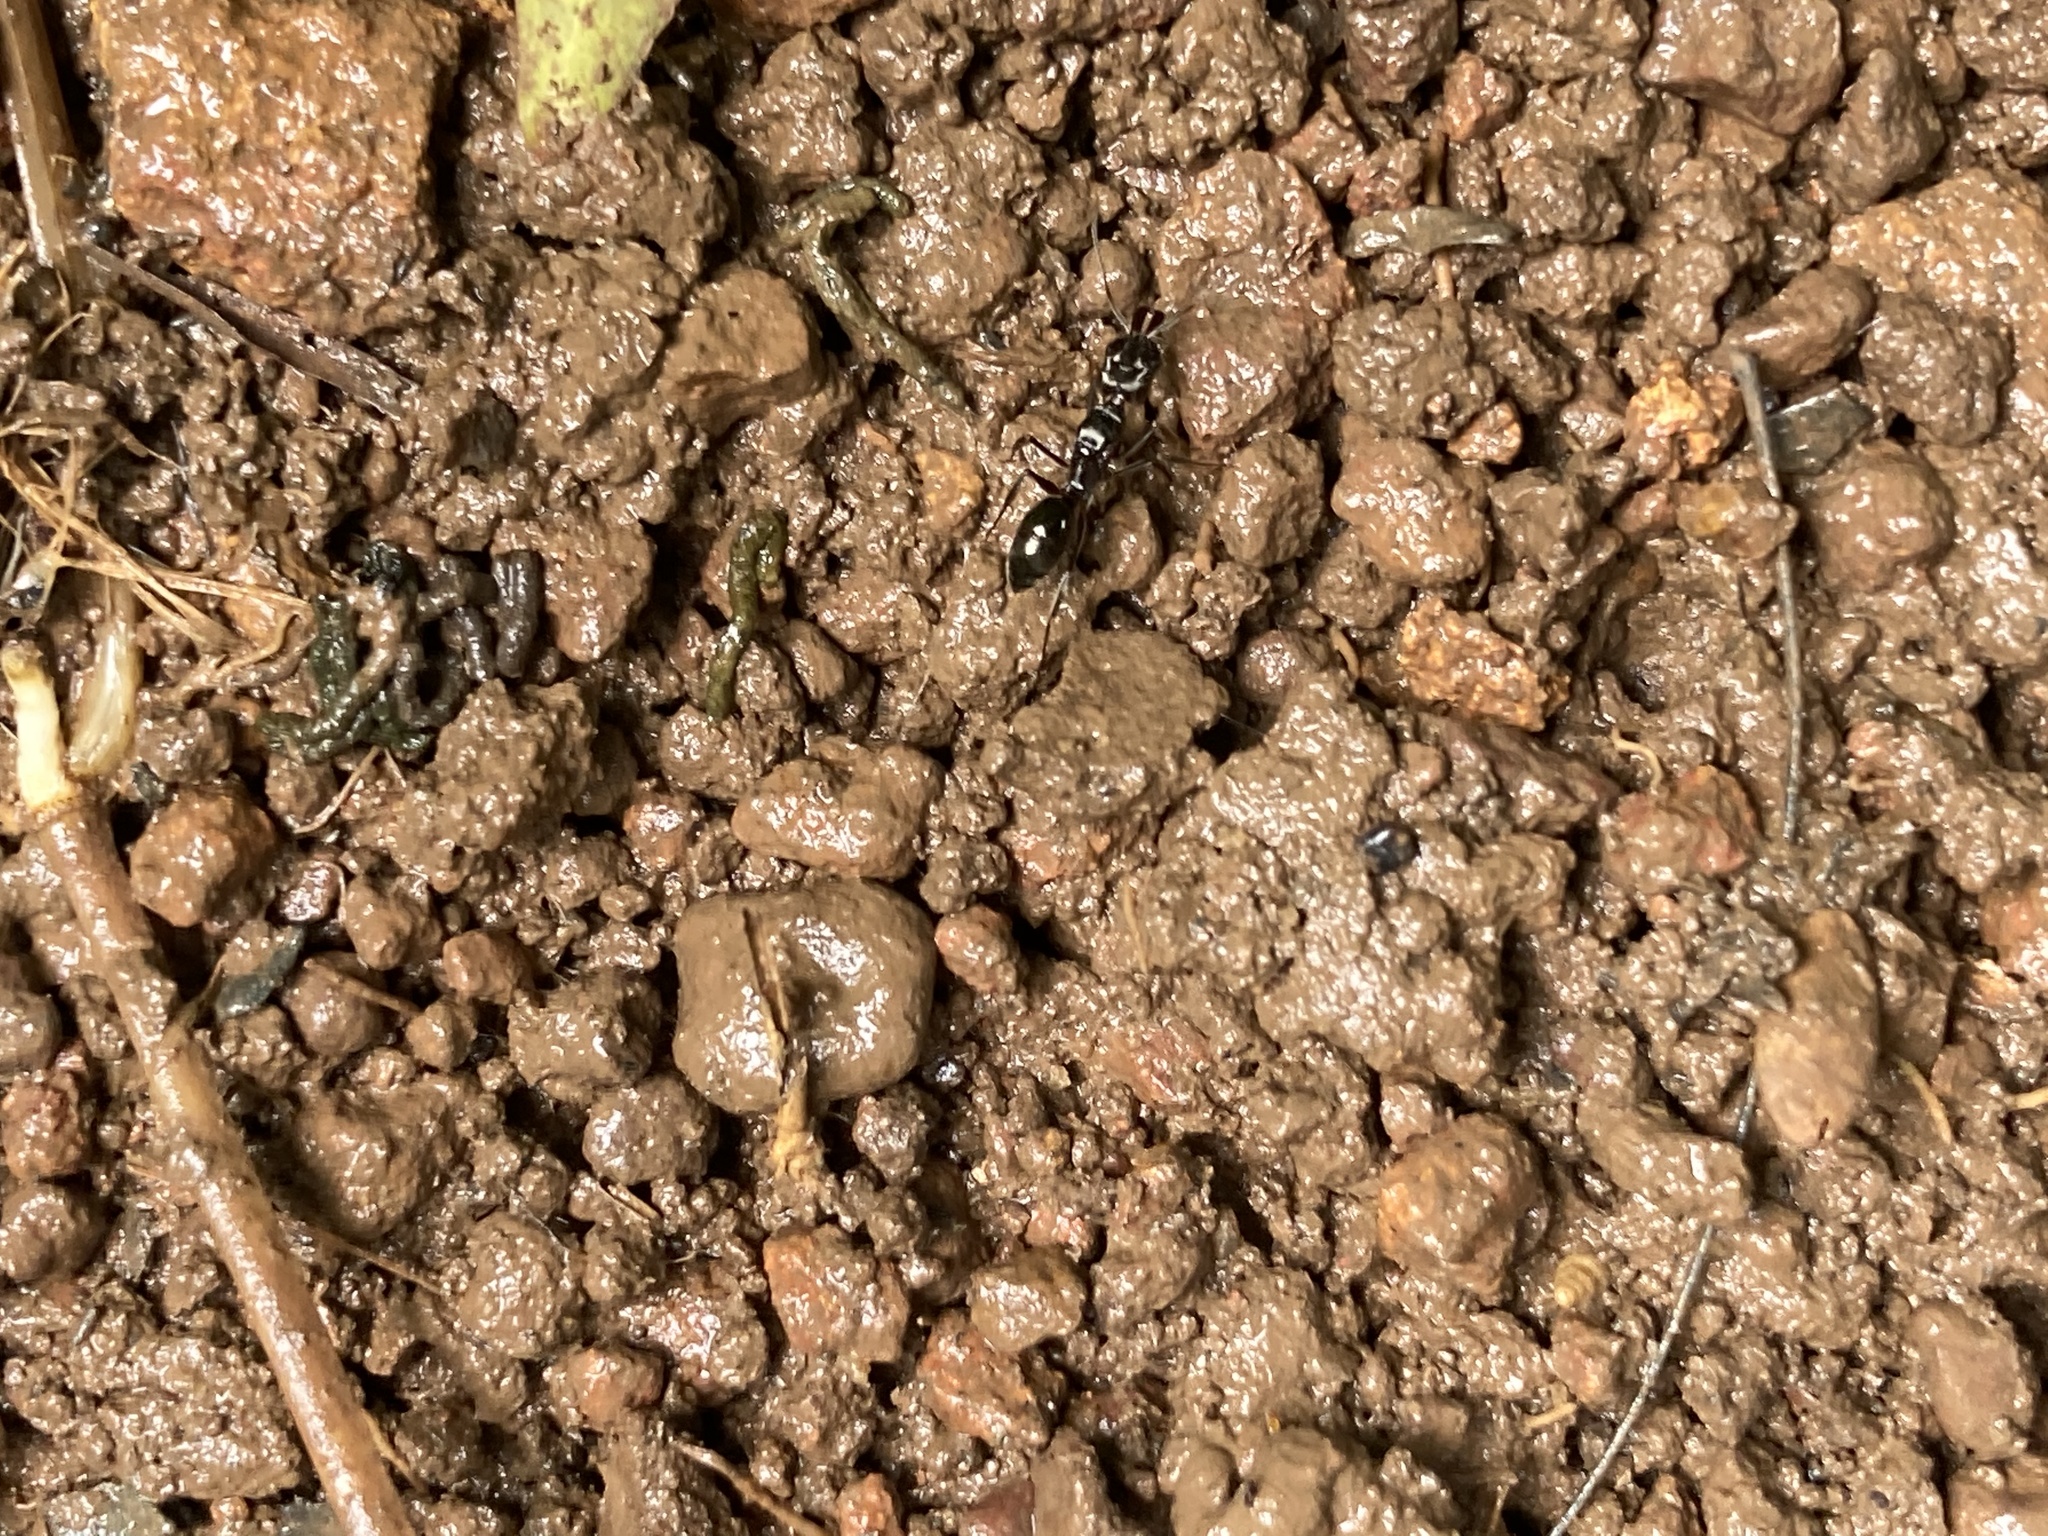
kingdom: Animalia
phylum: Arthropoda
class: Insecta
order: Hymenoptera
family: Formicidae
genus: Odontomachus
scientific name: Odontomachus simillimus
